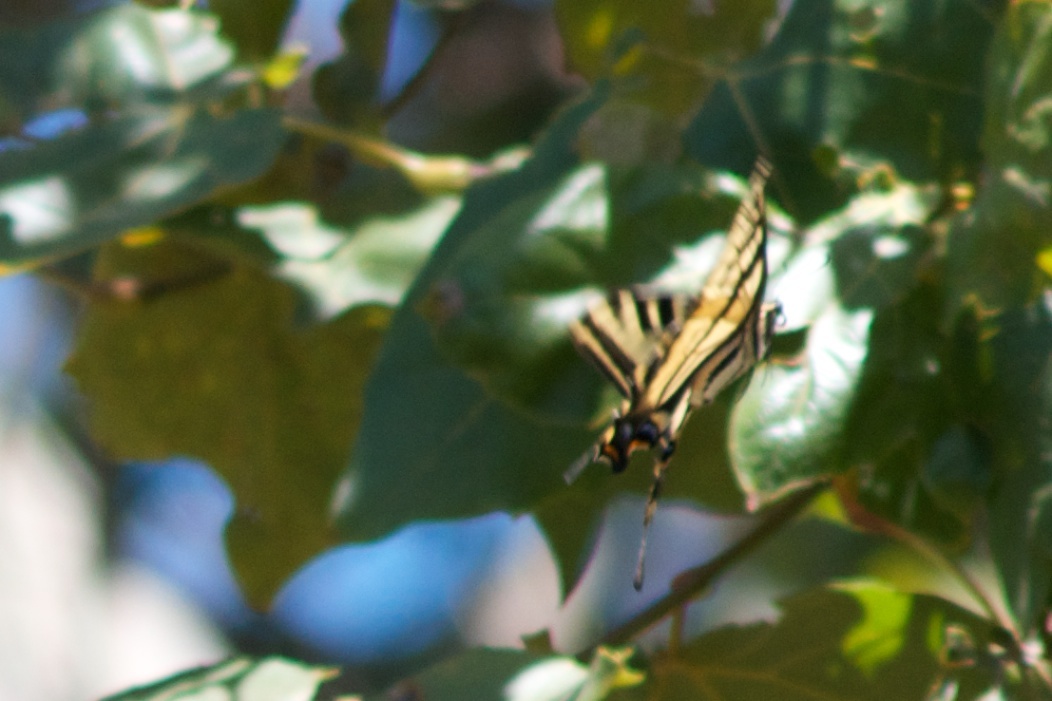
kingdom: Animalia
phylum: Arthropoda
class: Insecta
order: Lepidoptera
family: Papilionidae
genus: Papilio
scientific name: Papilio rutulus
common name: Western tiger swallowtail
